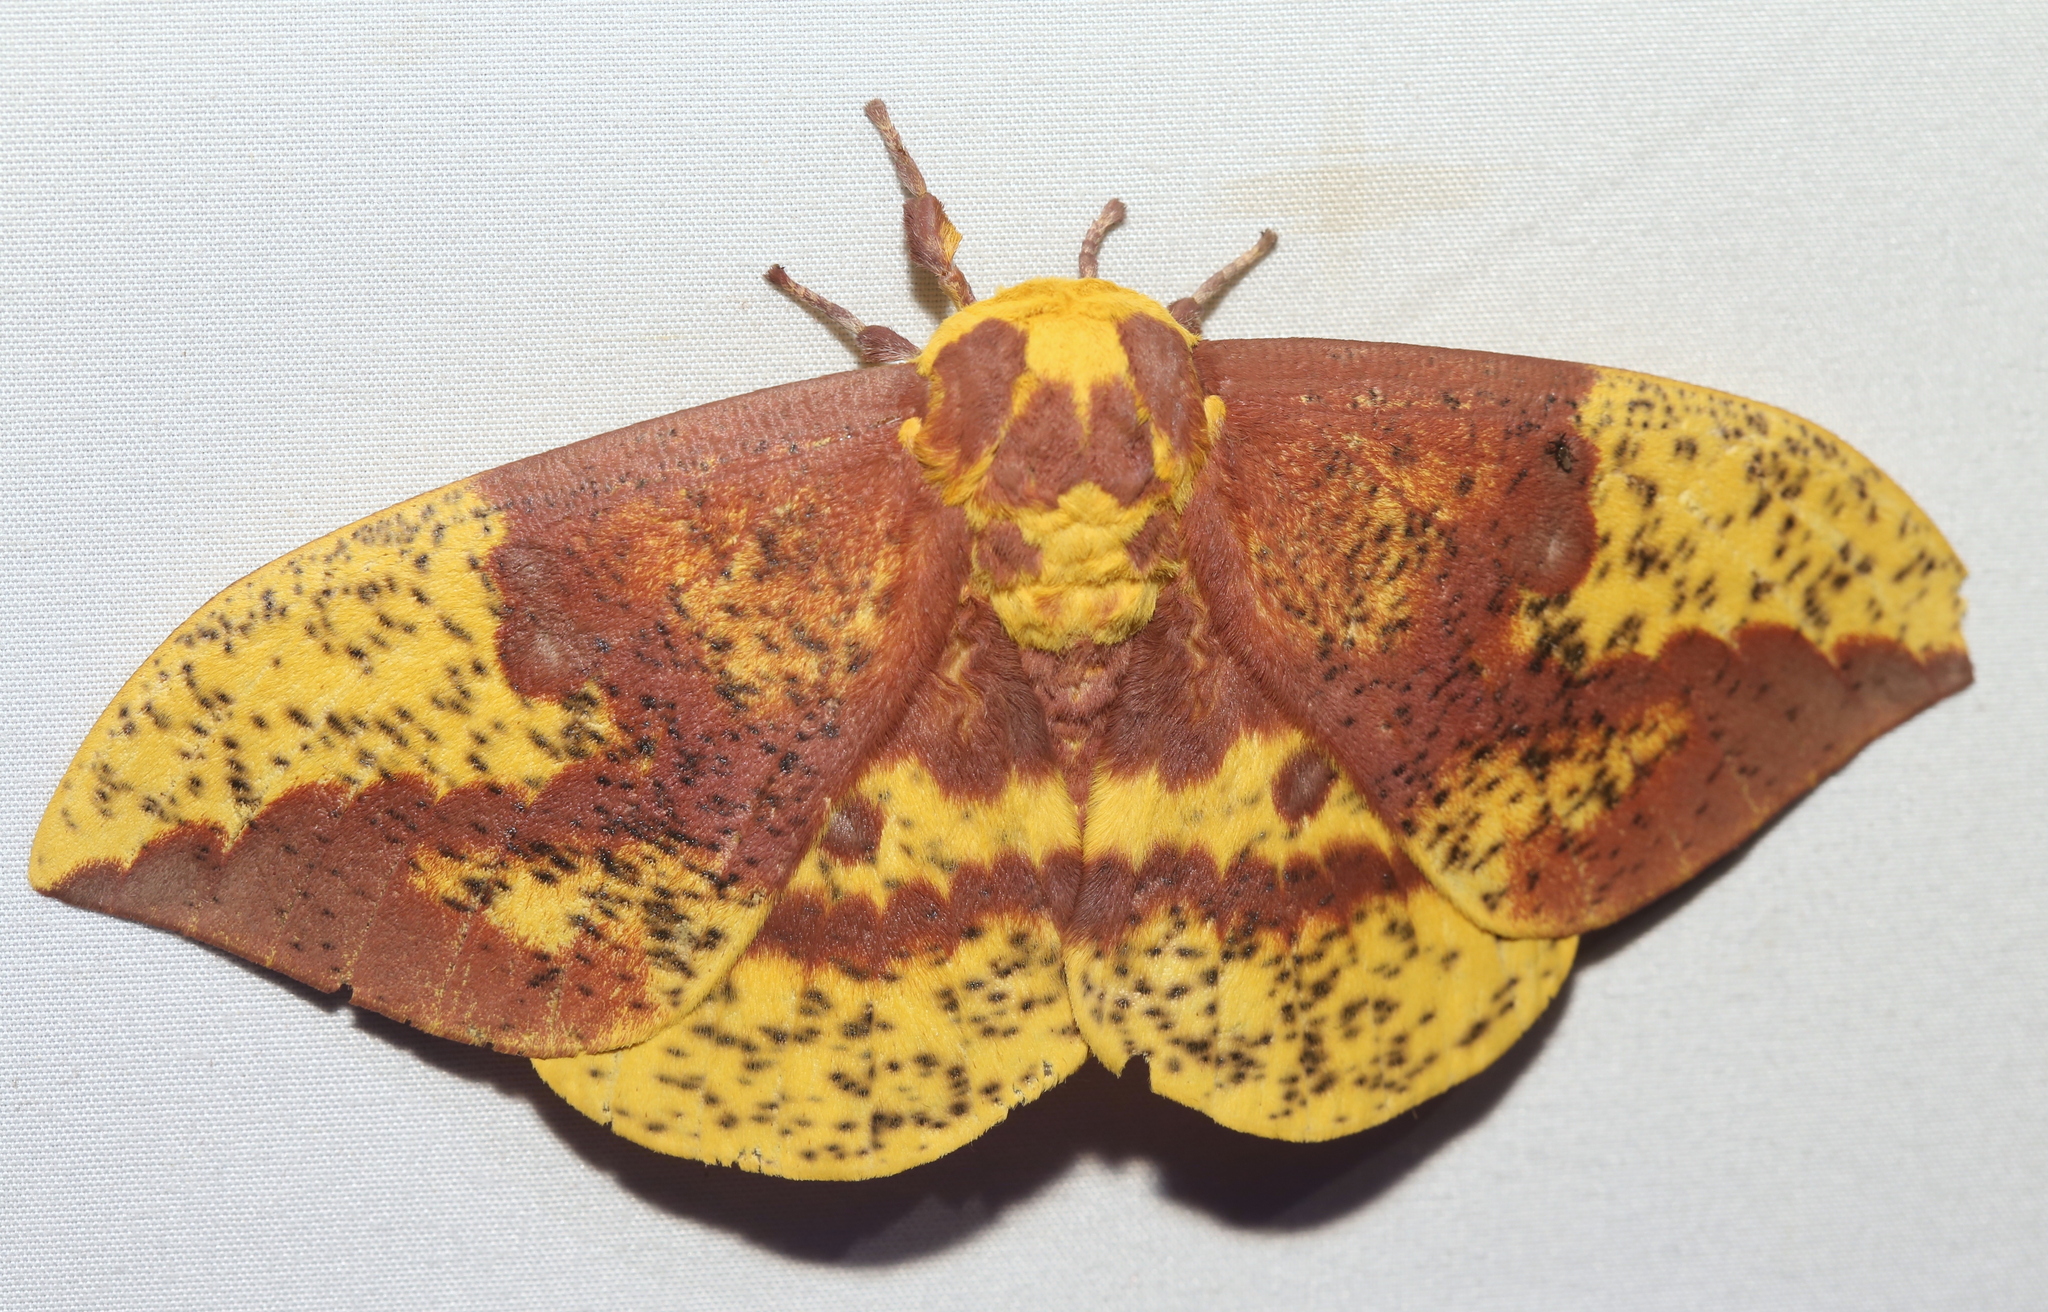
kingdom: Animalia
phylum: Arthropoda
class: Insecta
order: Lepidoptera
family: Saturniidae
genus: Eacles
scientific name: Eacles imperialis
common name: Imperial moth
